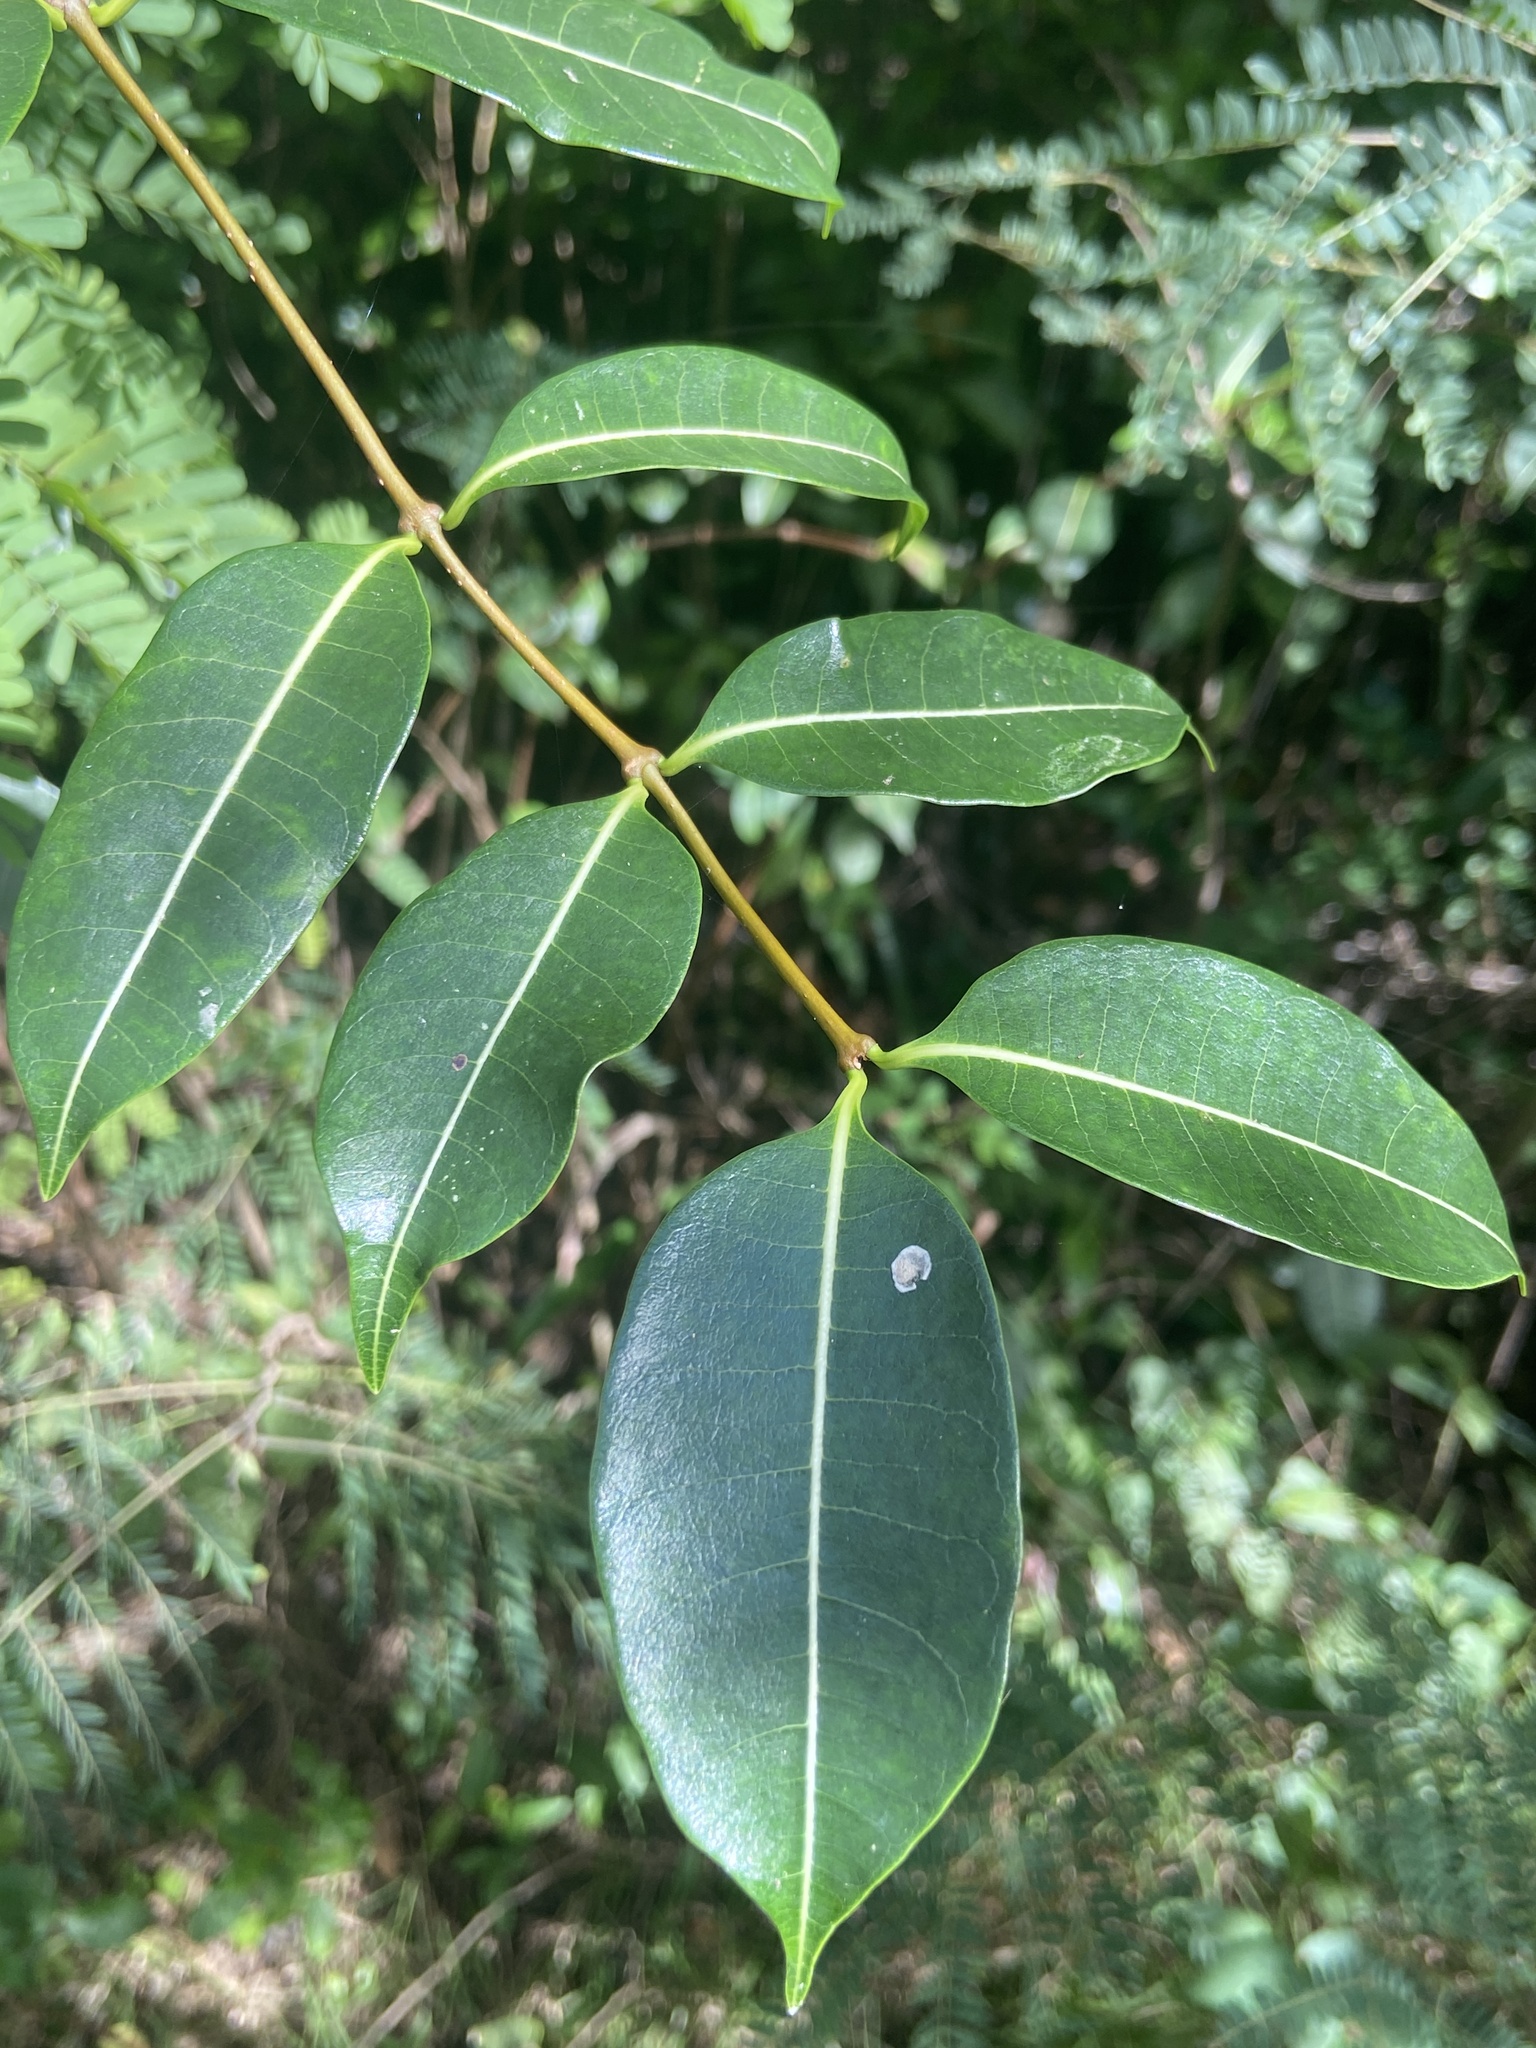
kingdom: Plantae
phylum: Tracheophyta
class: Magnoliopsida
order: Gentianales
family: Apocynaceae
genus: Cryptostegia
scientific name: Cryptostegia madagascariensis
